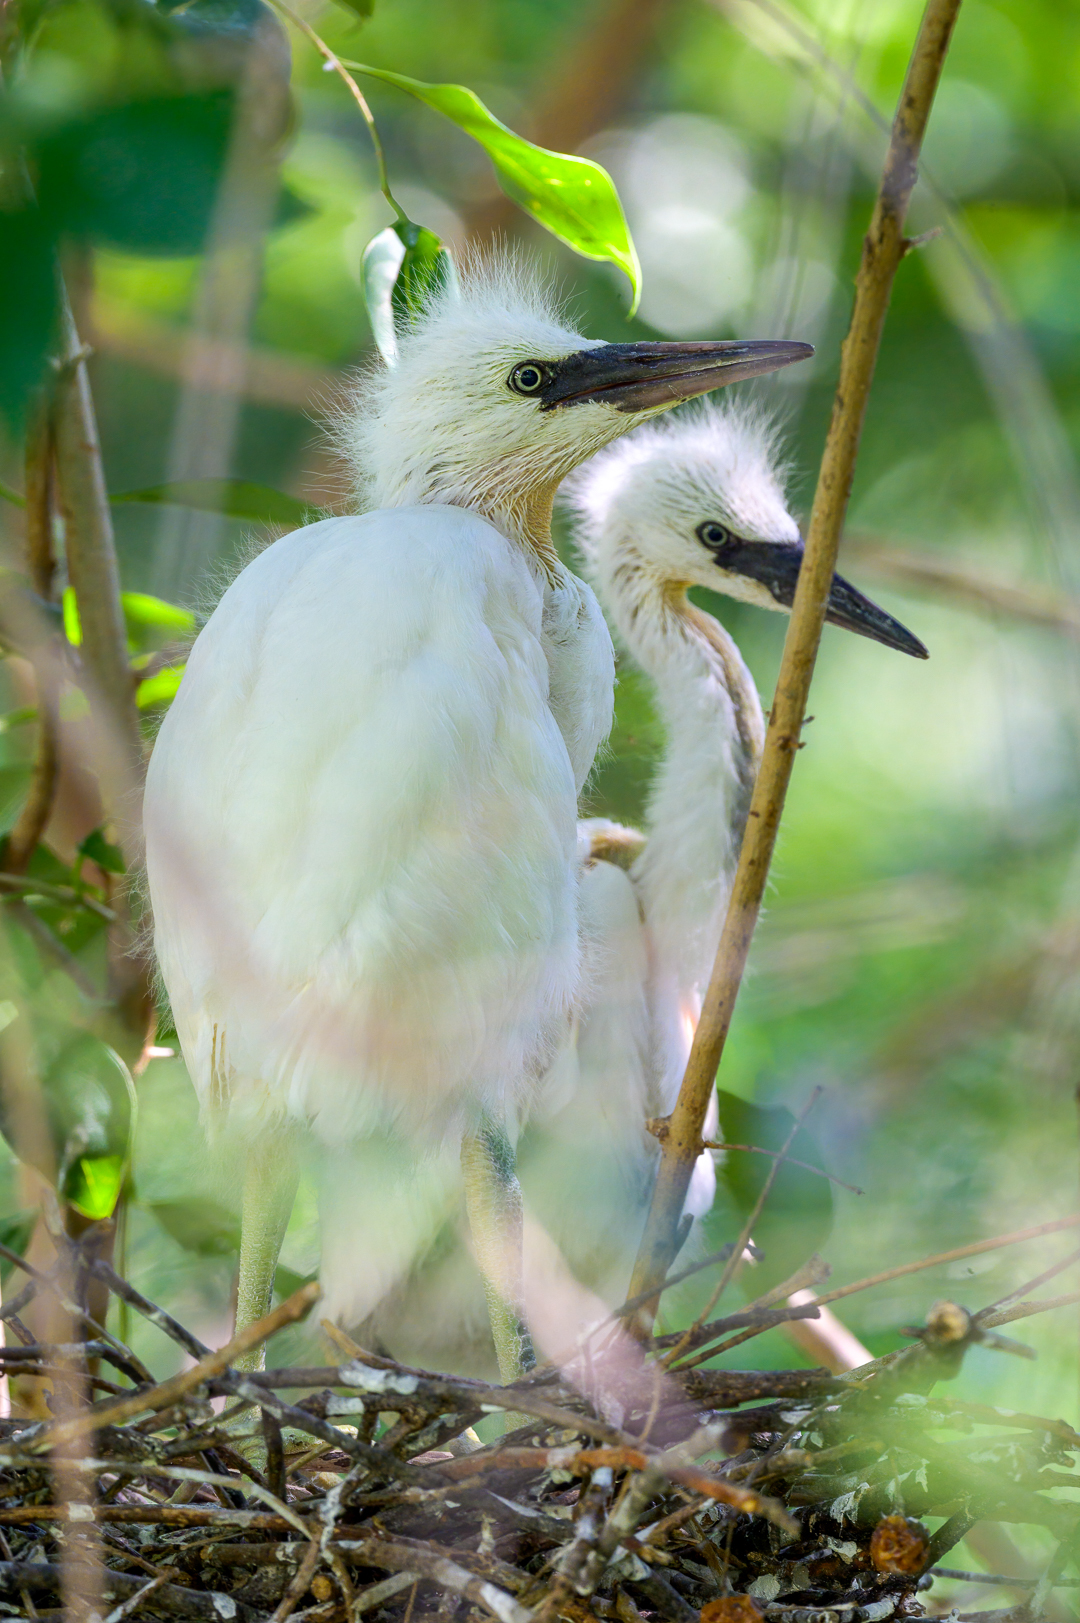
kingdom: Animalia
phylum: Chordata
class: Aves
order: Pelecaniformes
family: Ardeidae
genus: Egretta
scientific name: Egretta caerulea
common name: Little blue heron
